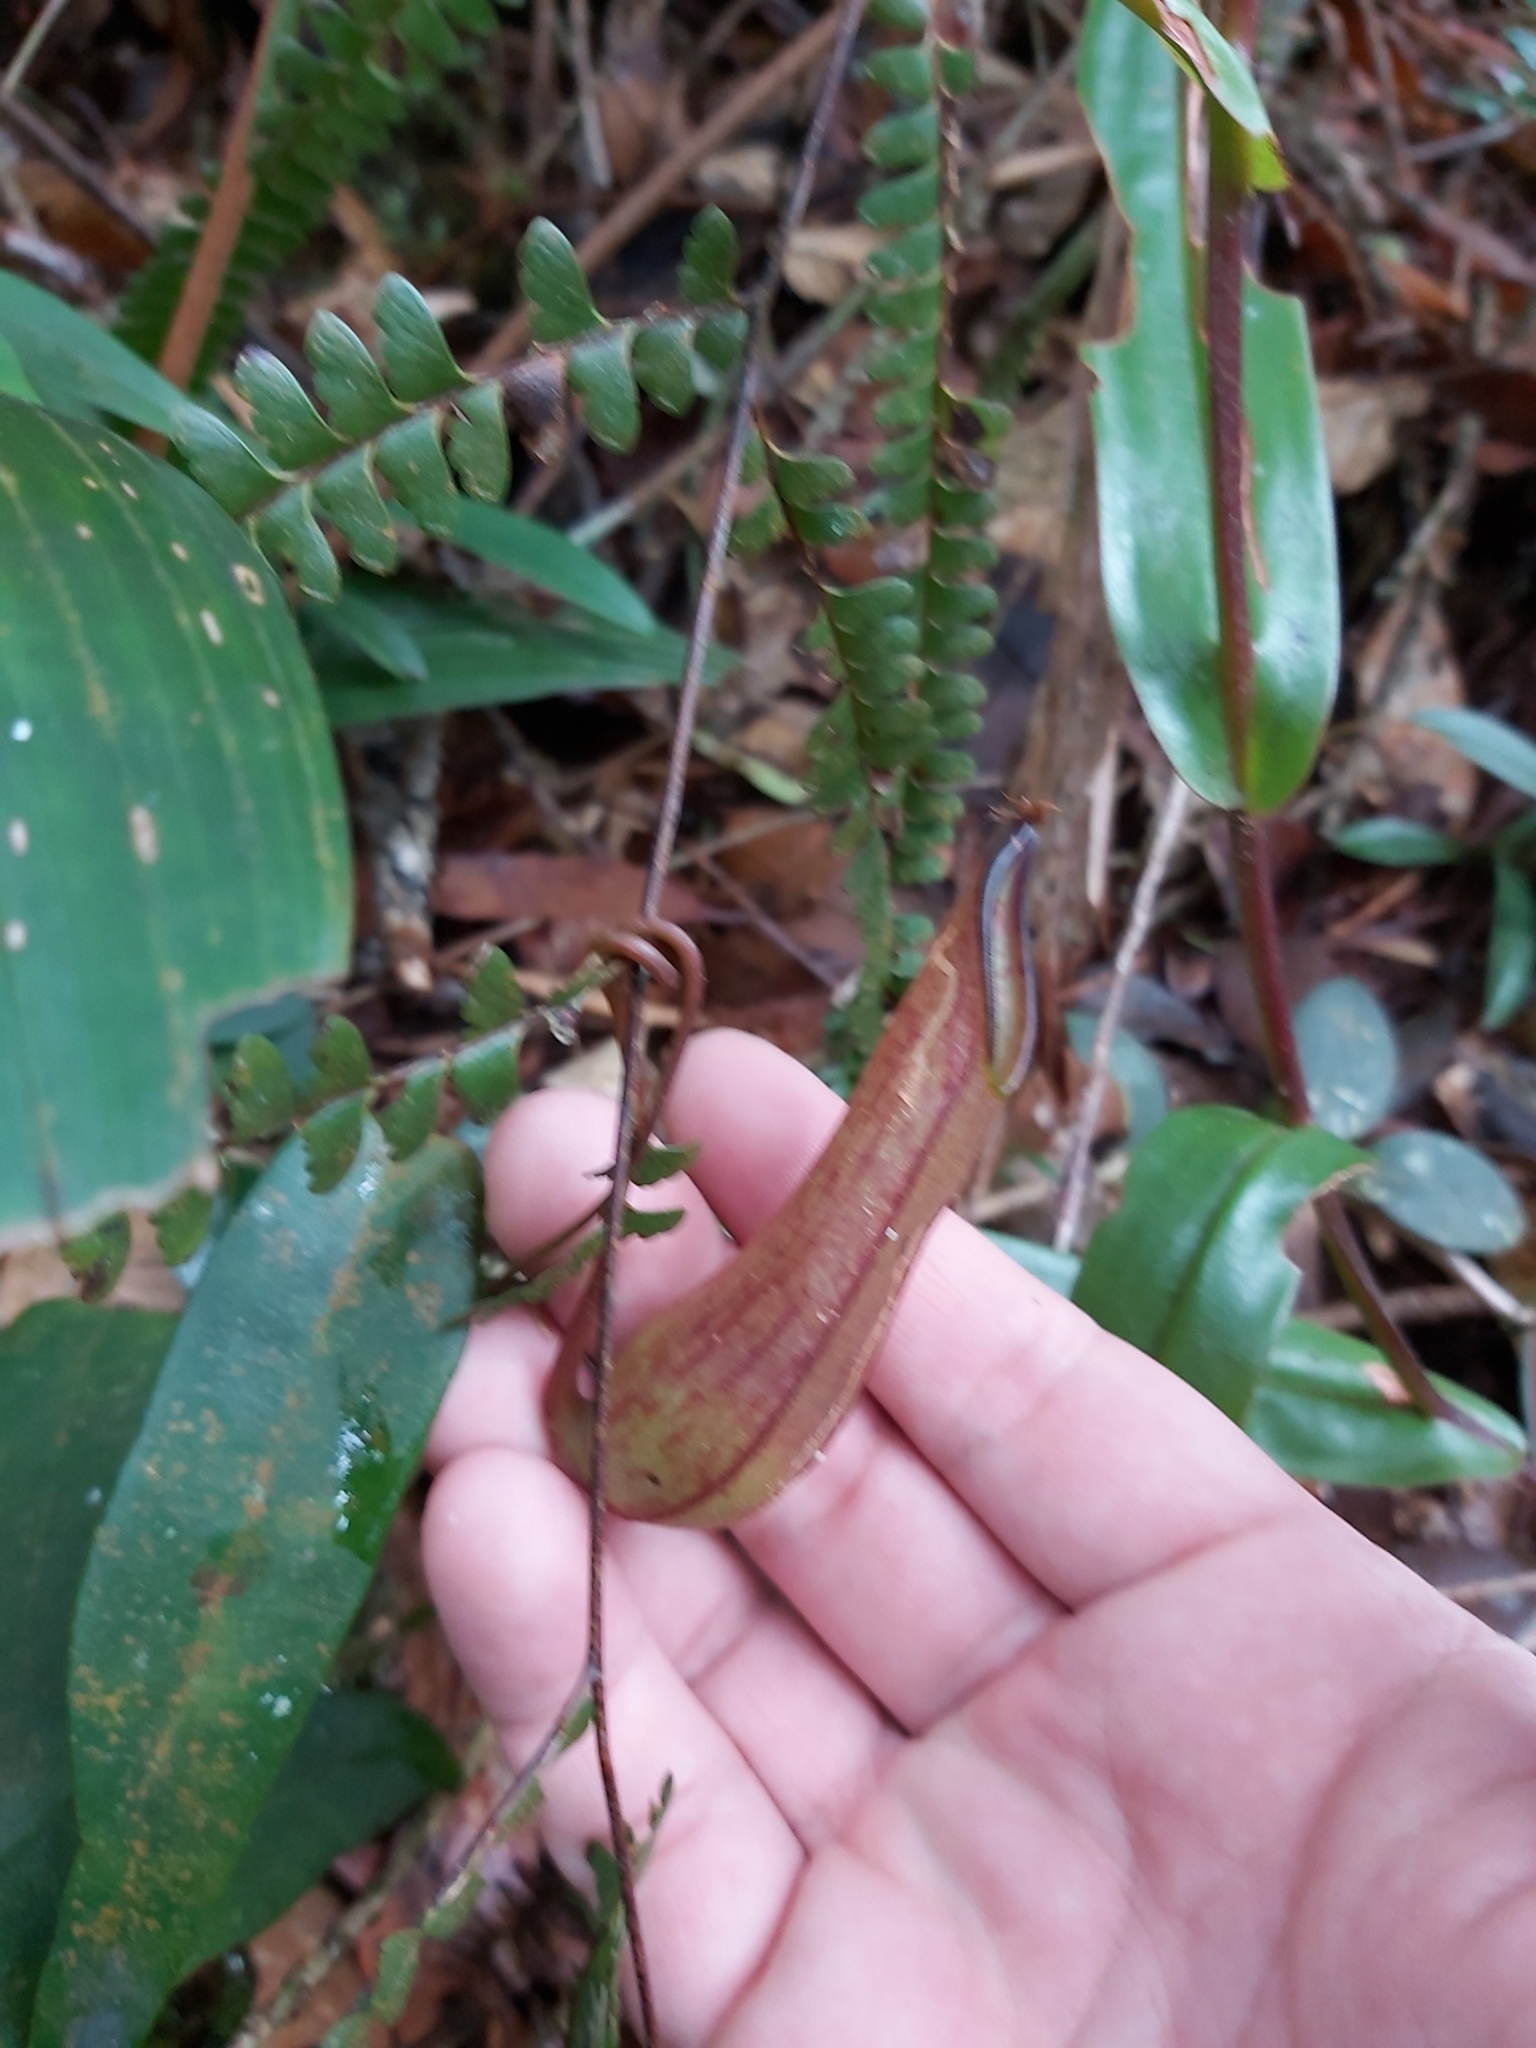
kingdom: Plantae
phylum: Tracheophyta
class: Magnoliopsida
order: Caryophyllales
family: Nepenthaceae
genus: Nepenthes
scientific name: Nepenthes tentaculata
